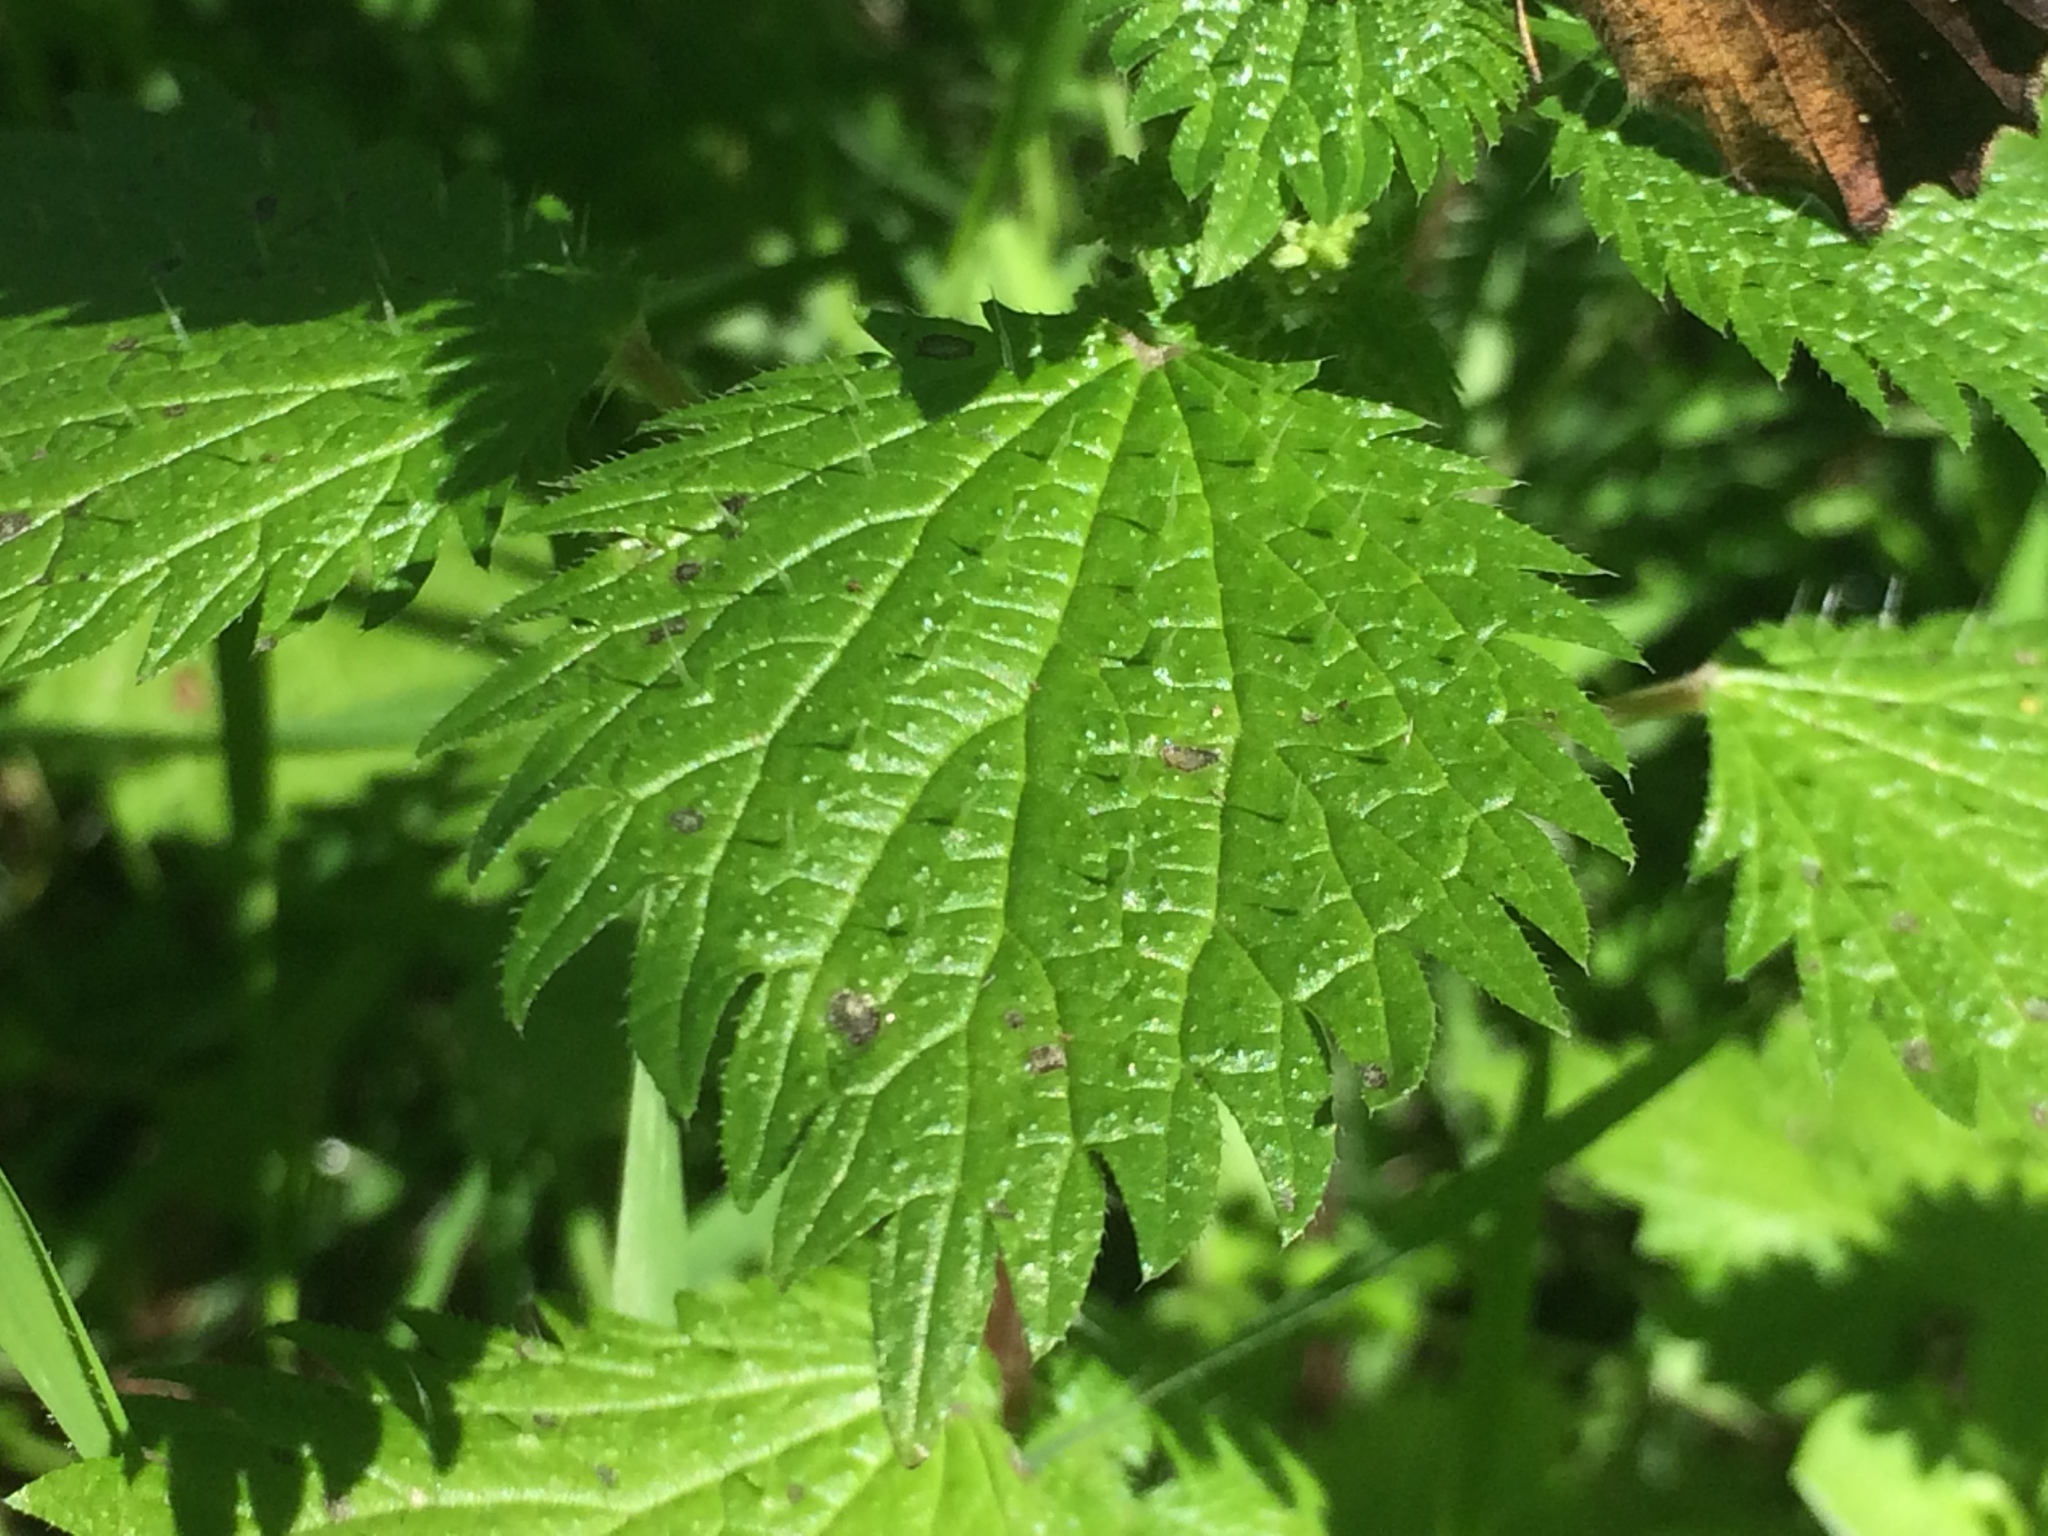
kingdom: Plantae
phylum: Tracheophyta
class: Magnoliopsida
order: Rosales
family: Urticaceae
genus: Urtica
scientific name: Urtica membranacea
